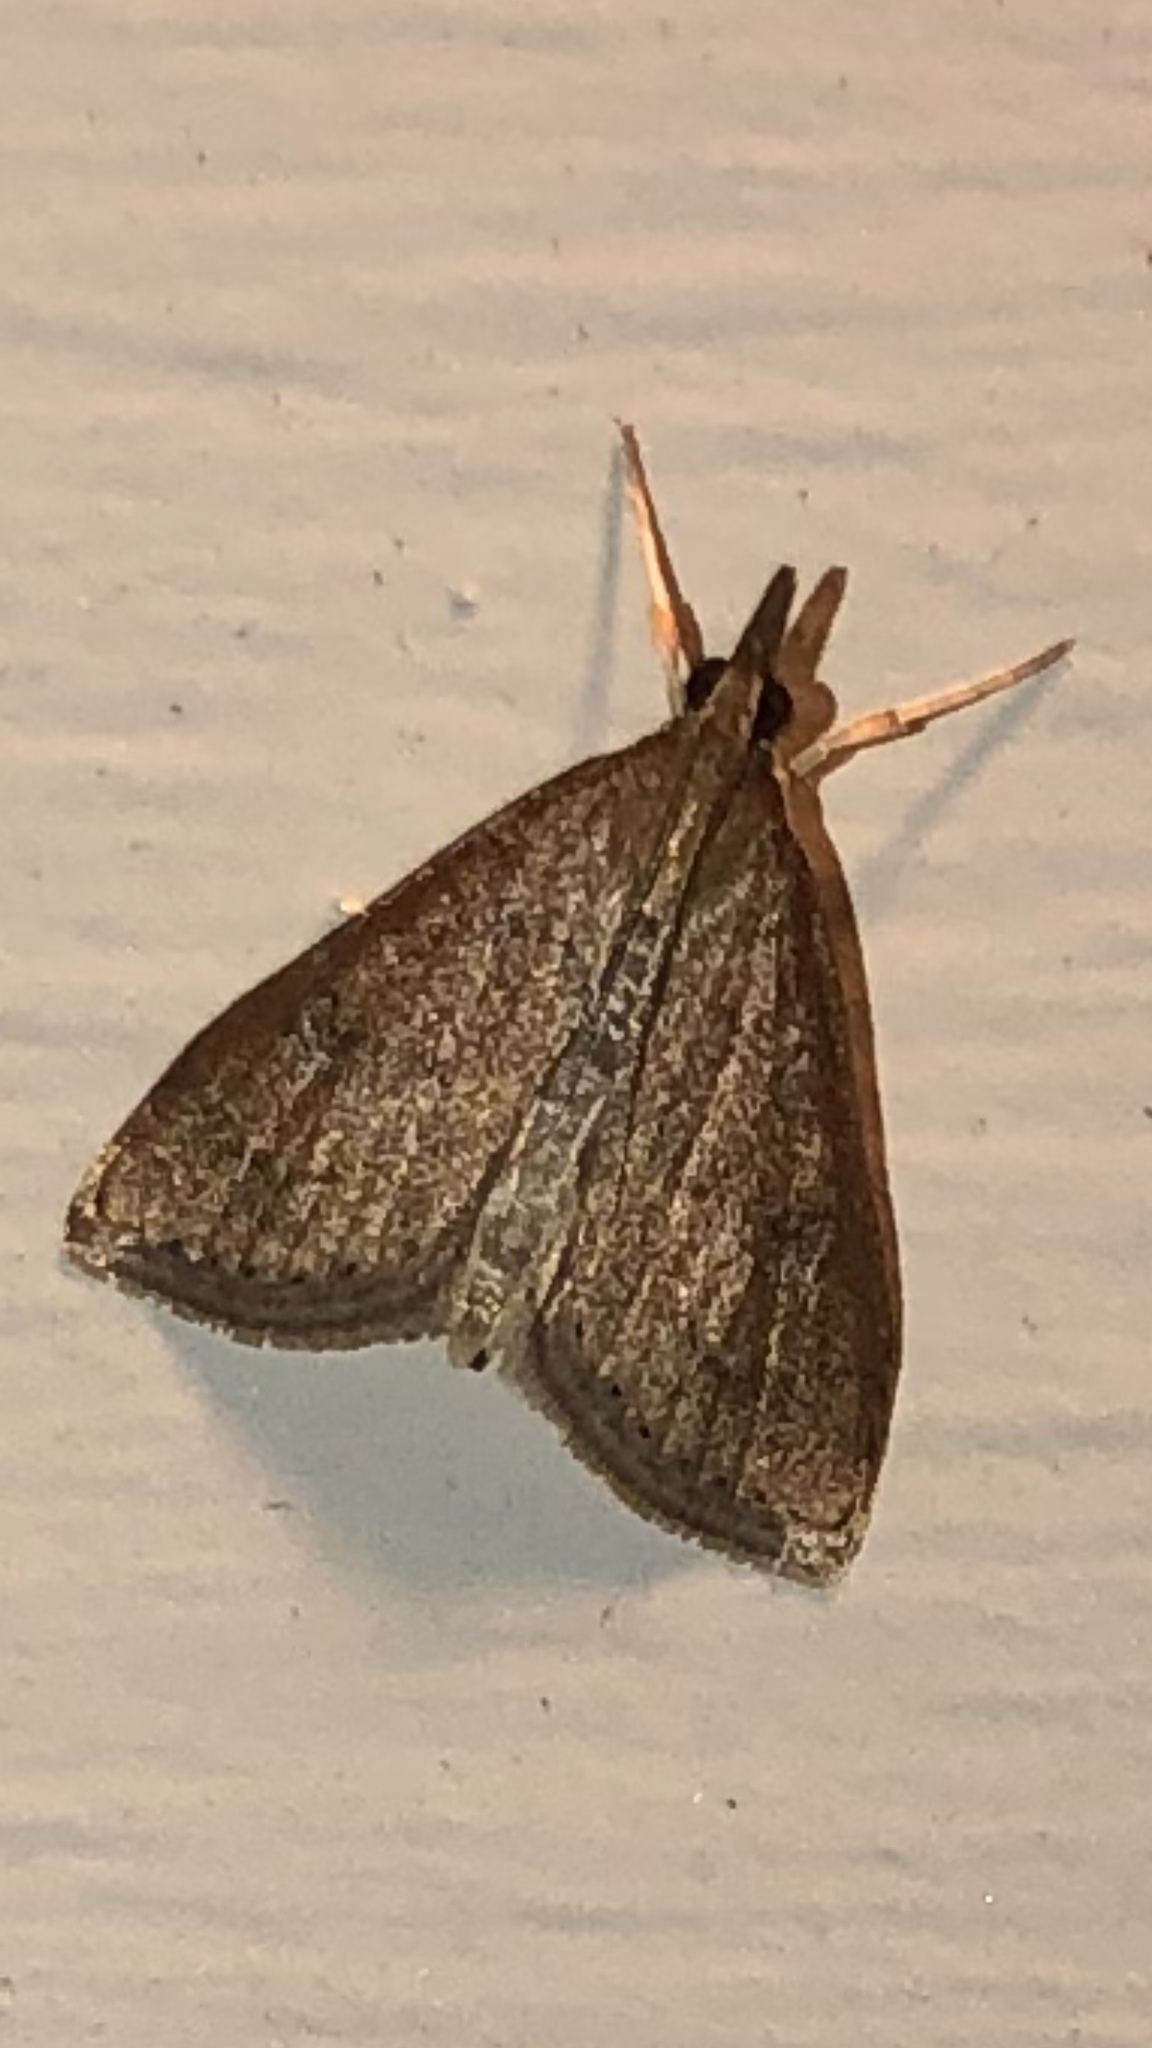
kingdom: Animalia
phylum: Arthropoda
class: Insecta
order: Lepidoptera
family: Crambidae
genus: Udea
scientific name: Udea rubigalis
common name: Celery leaftier moth
